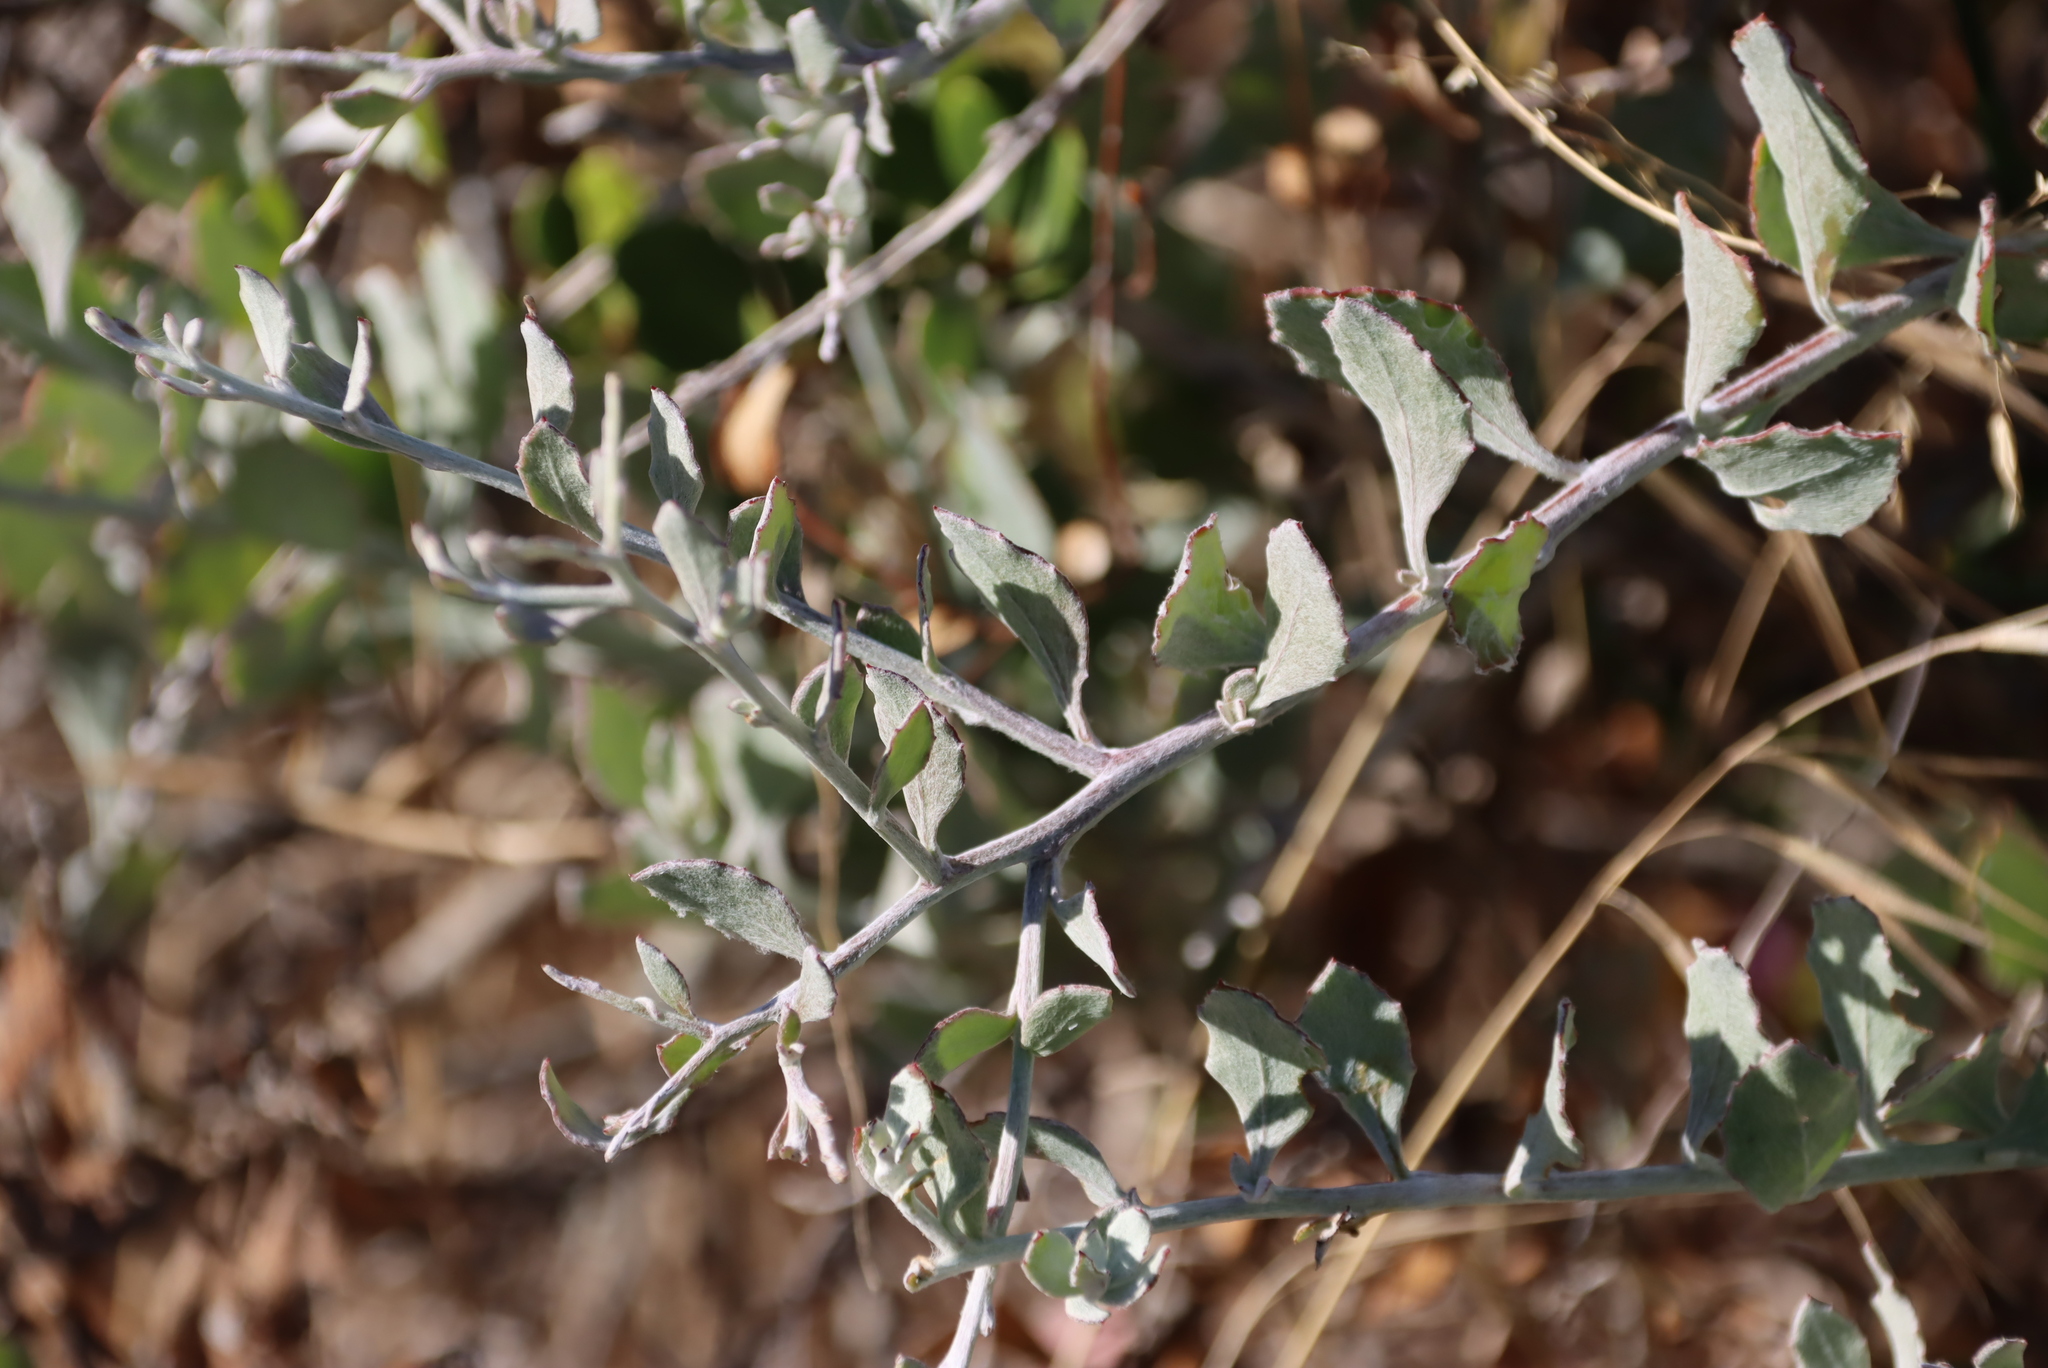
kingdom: Plantae
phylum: Tracheophyta
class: Magnoliopsida
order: Asterales
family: Asteraceae
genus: Osteospermum
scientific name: Osteospermum incanum
